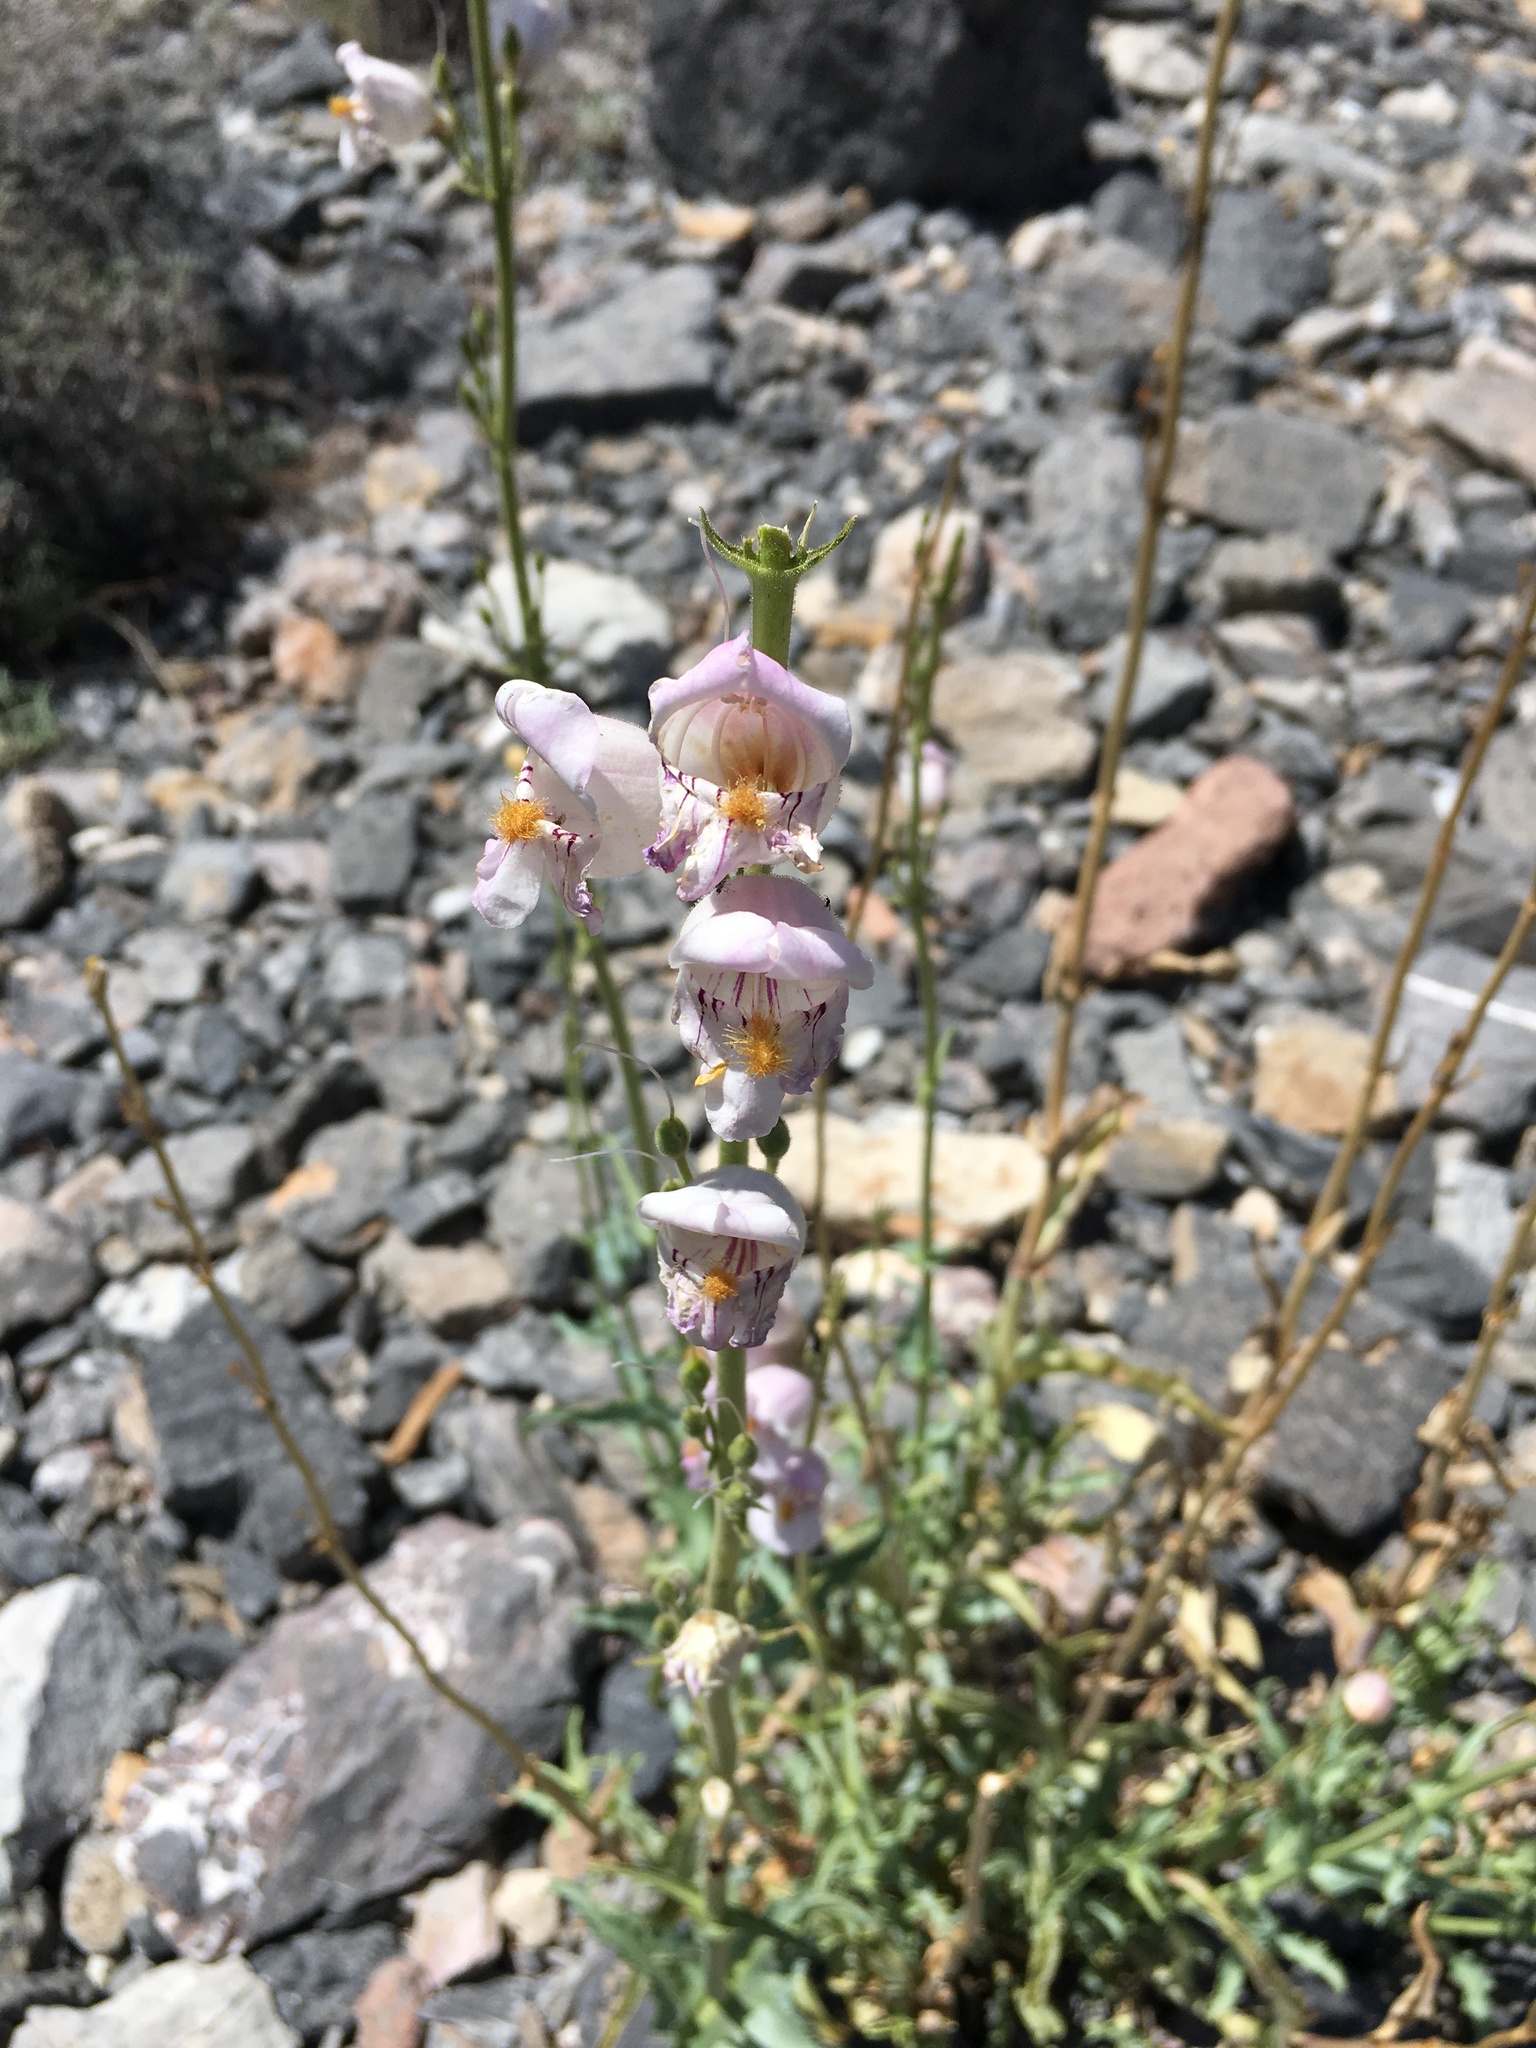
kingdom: Plantae
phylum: Tracheophyta
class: Magnoliopsida
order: Lamiales
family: Plantaginaceae
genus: Penstemon
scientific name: Penstemon palmeri
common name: Palmer penstemon
